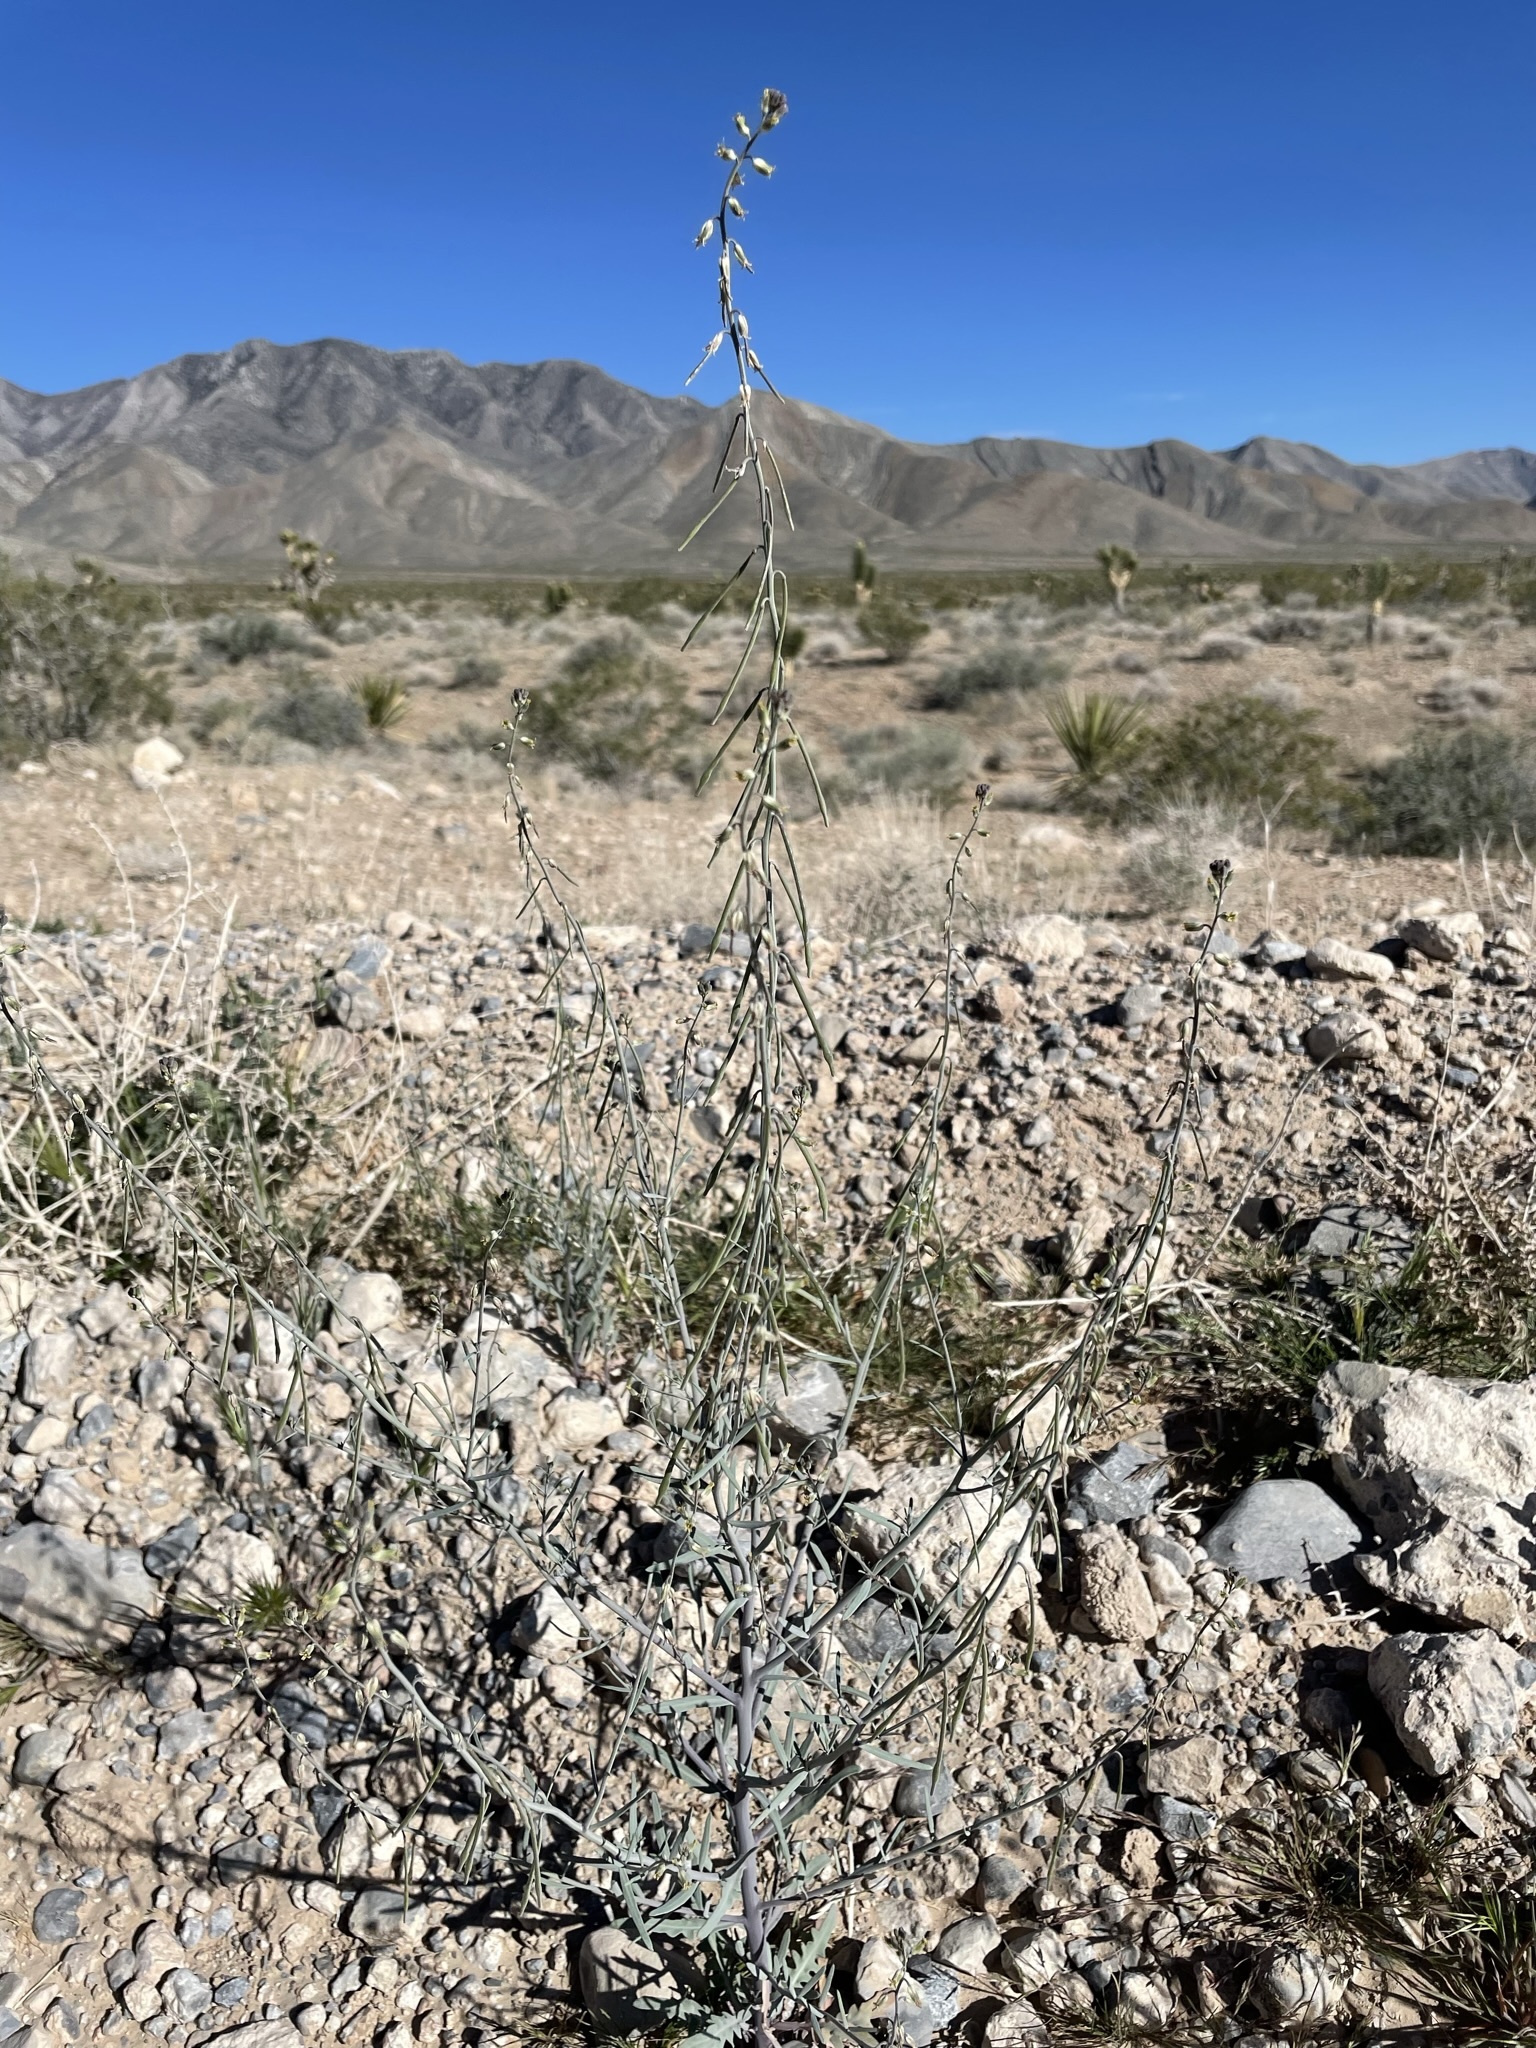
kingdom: Plantae
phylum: Tracheophyta
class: Magnoliopsida
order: Brassicales
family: Brassicaceae
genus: Streptanthus
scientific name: Streptanthus longirostris
